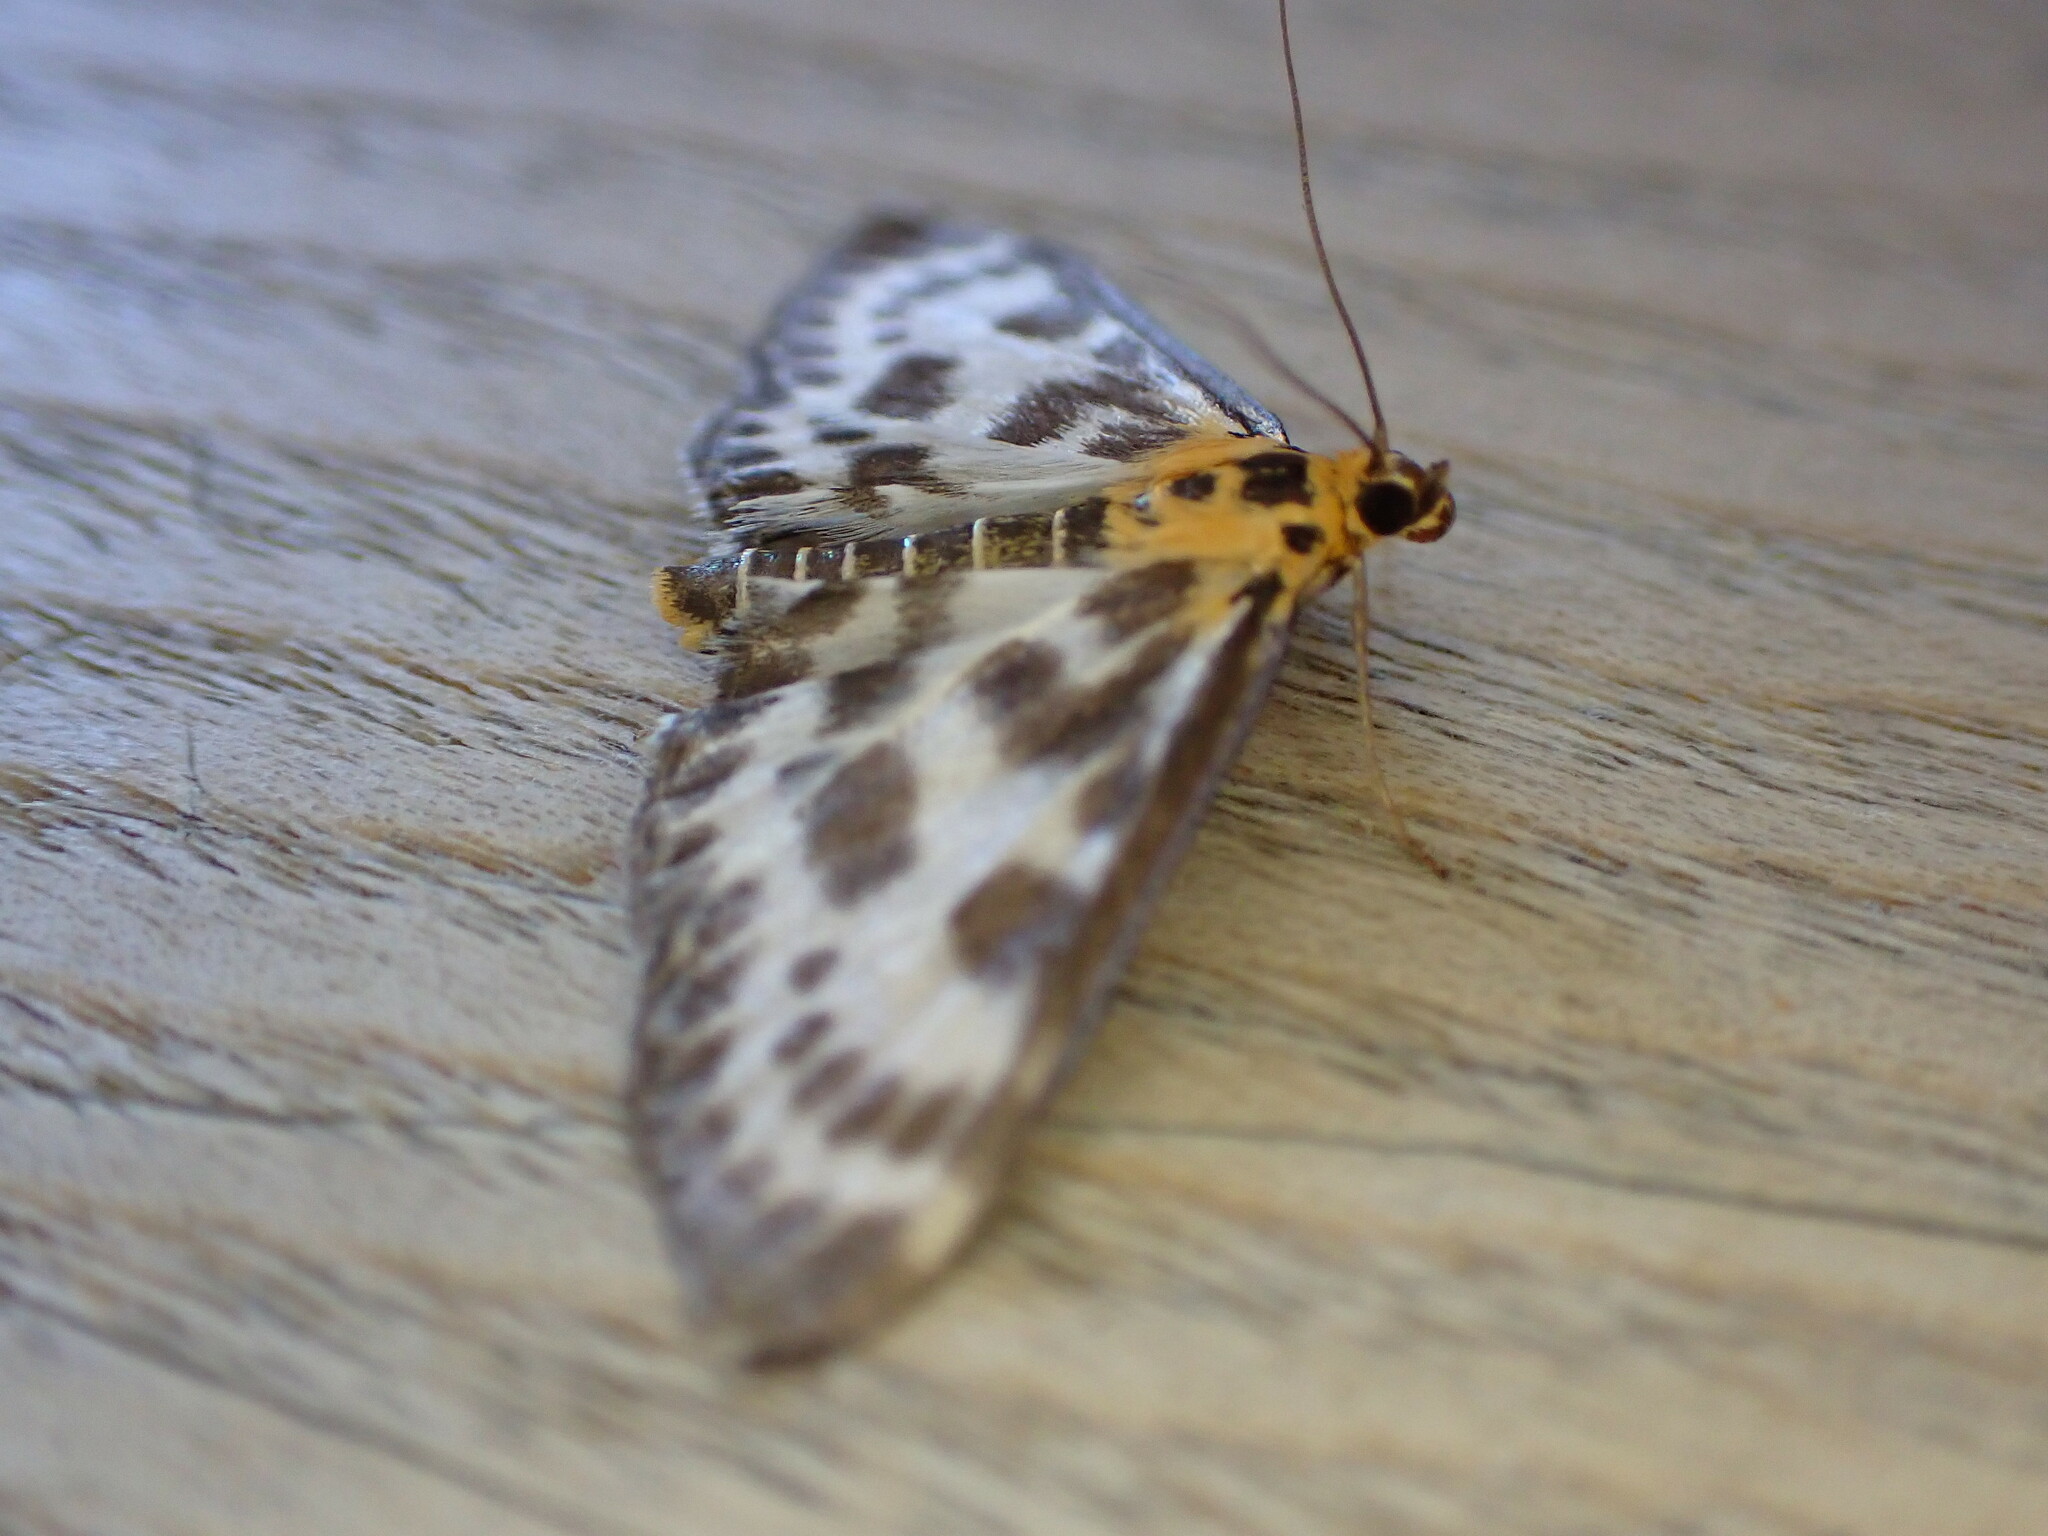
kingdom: Animalia
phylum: Arthropoda
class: Insecta
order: Lepidoptera
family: Crambidae
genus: Anania
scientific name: Anania hortulata
